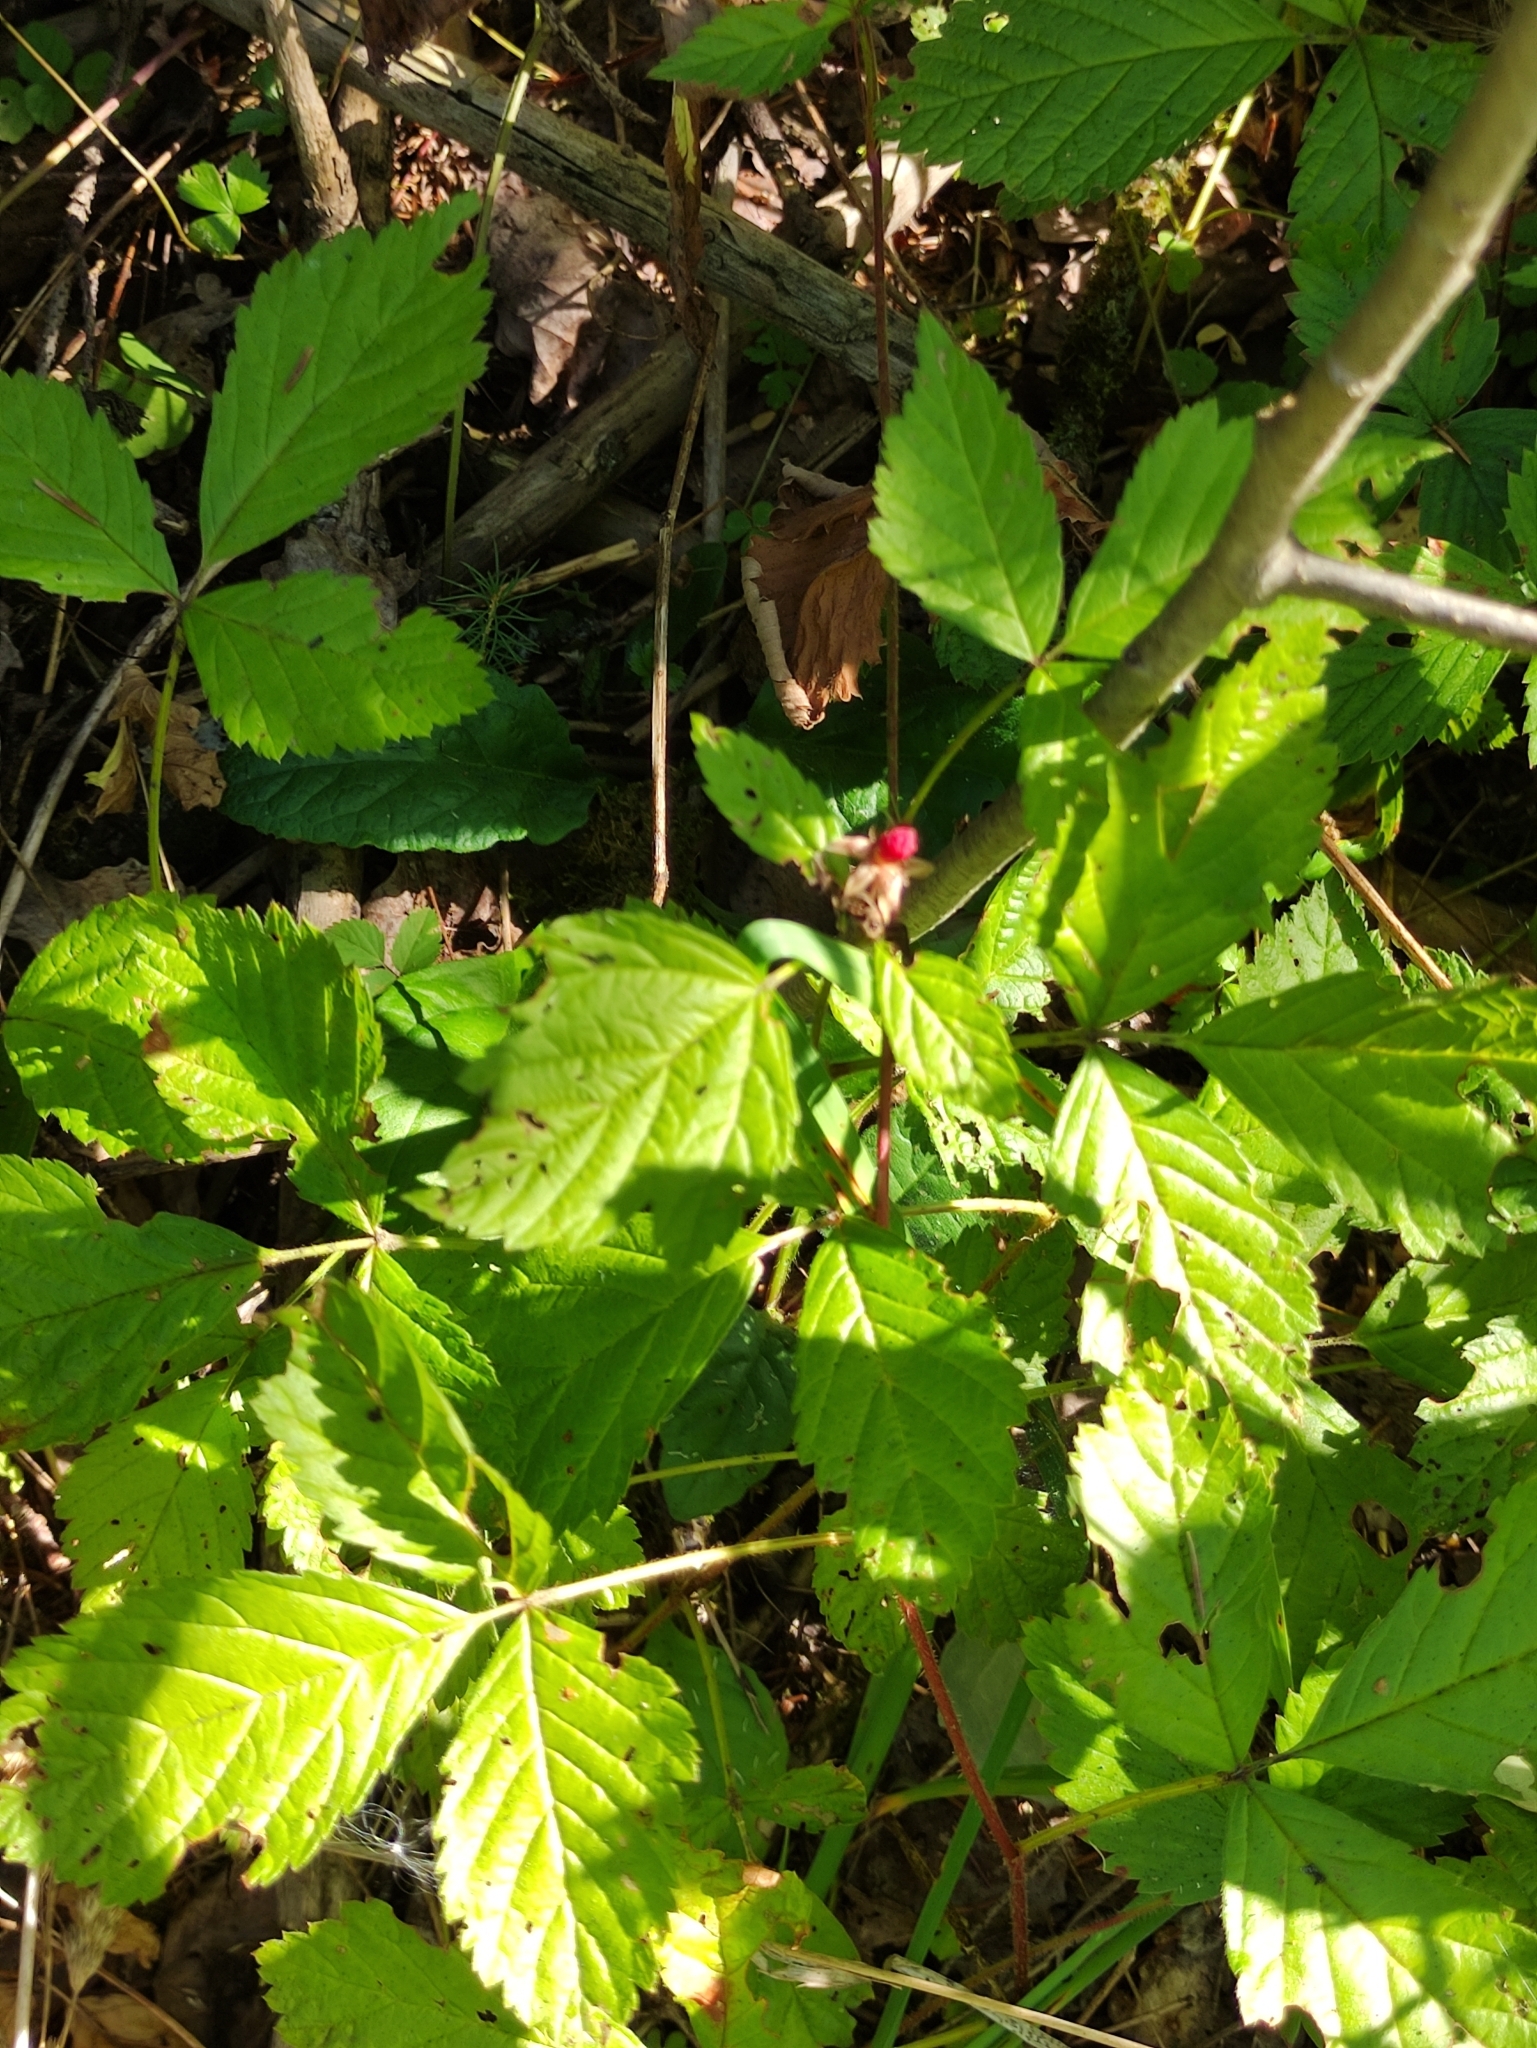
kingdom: Plantae
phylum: Tracheophyta
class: Magnoliopsida
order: Rosales
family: Rosaceae
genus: Rubus
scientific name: Rubus saxatilis
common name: Stone bramble
